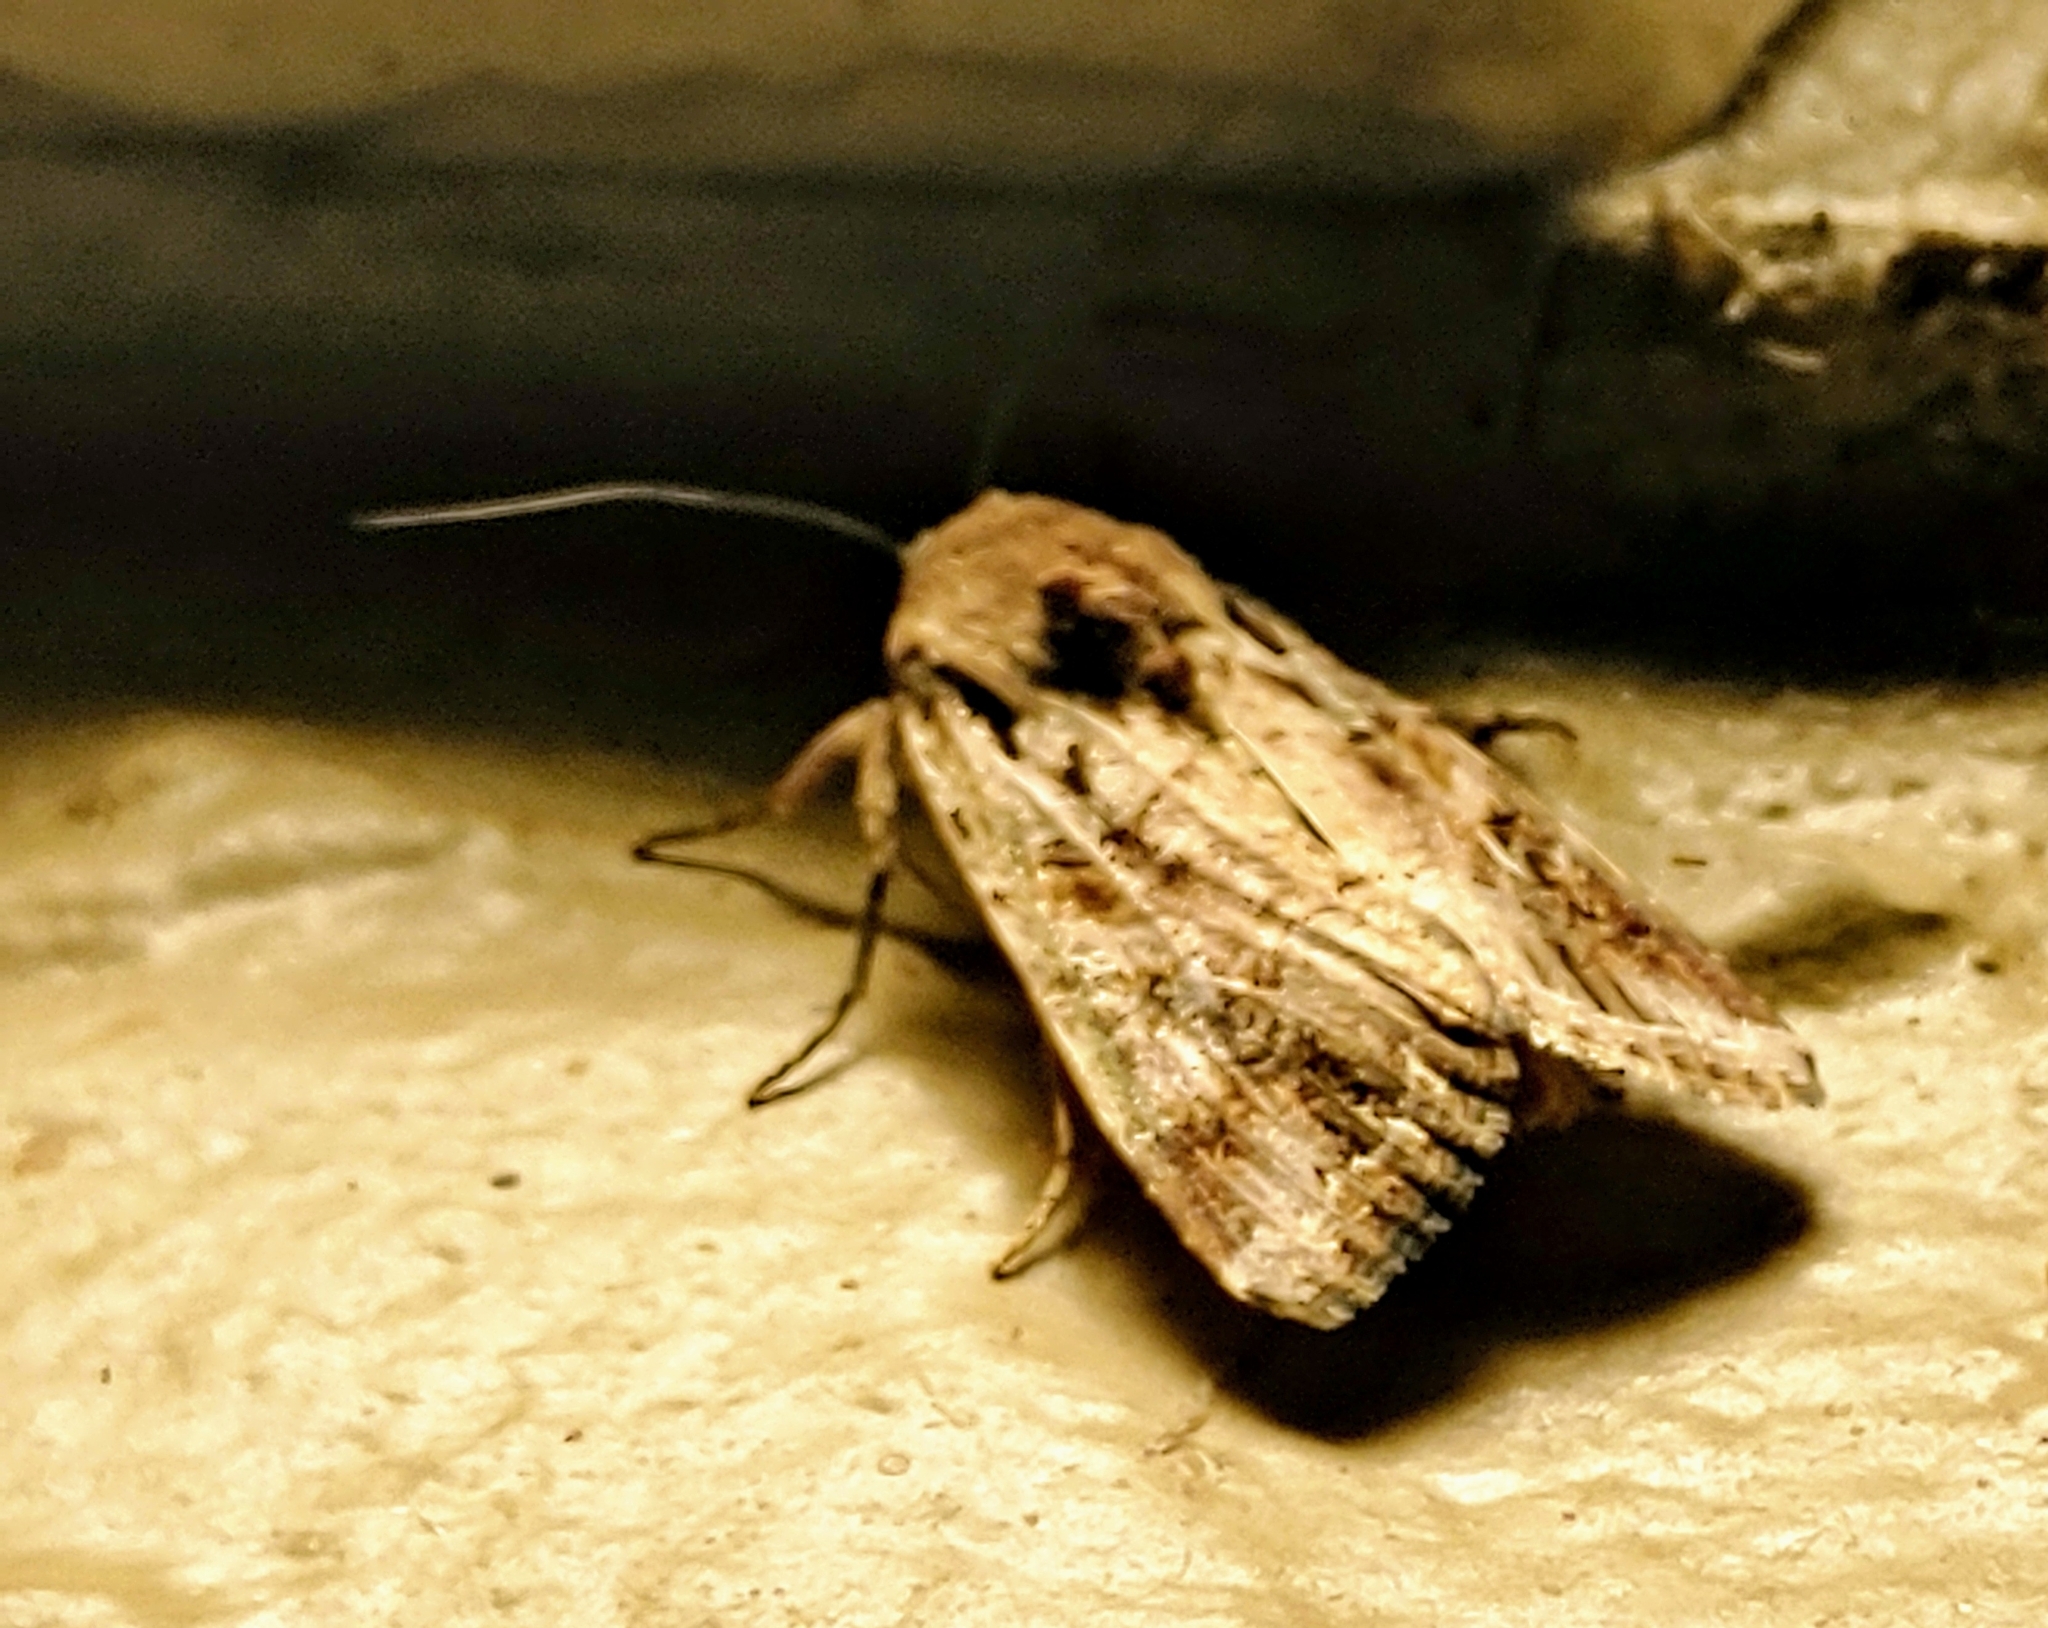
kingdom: Animalia
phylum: Arthropoda
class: Insecta
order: Lepidoptera
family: Noctuidae
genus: Spodoptera
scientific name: Spodoptera frugiperda
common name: Fall armyworm
